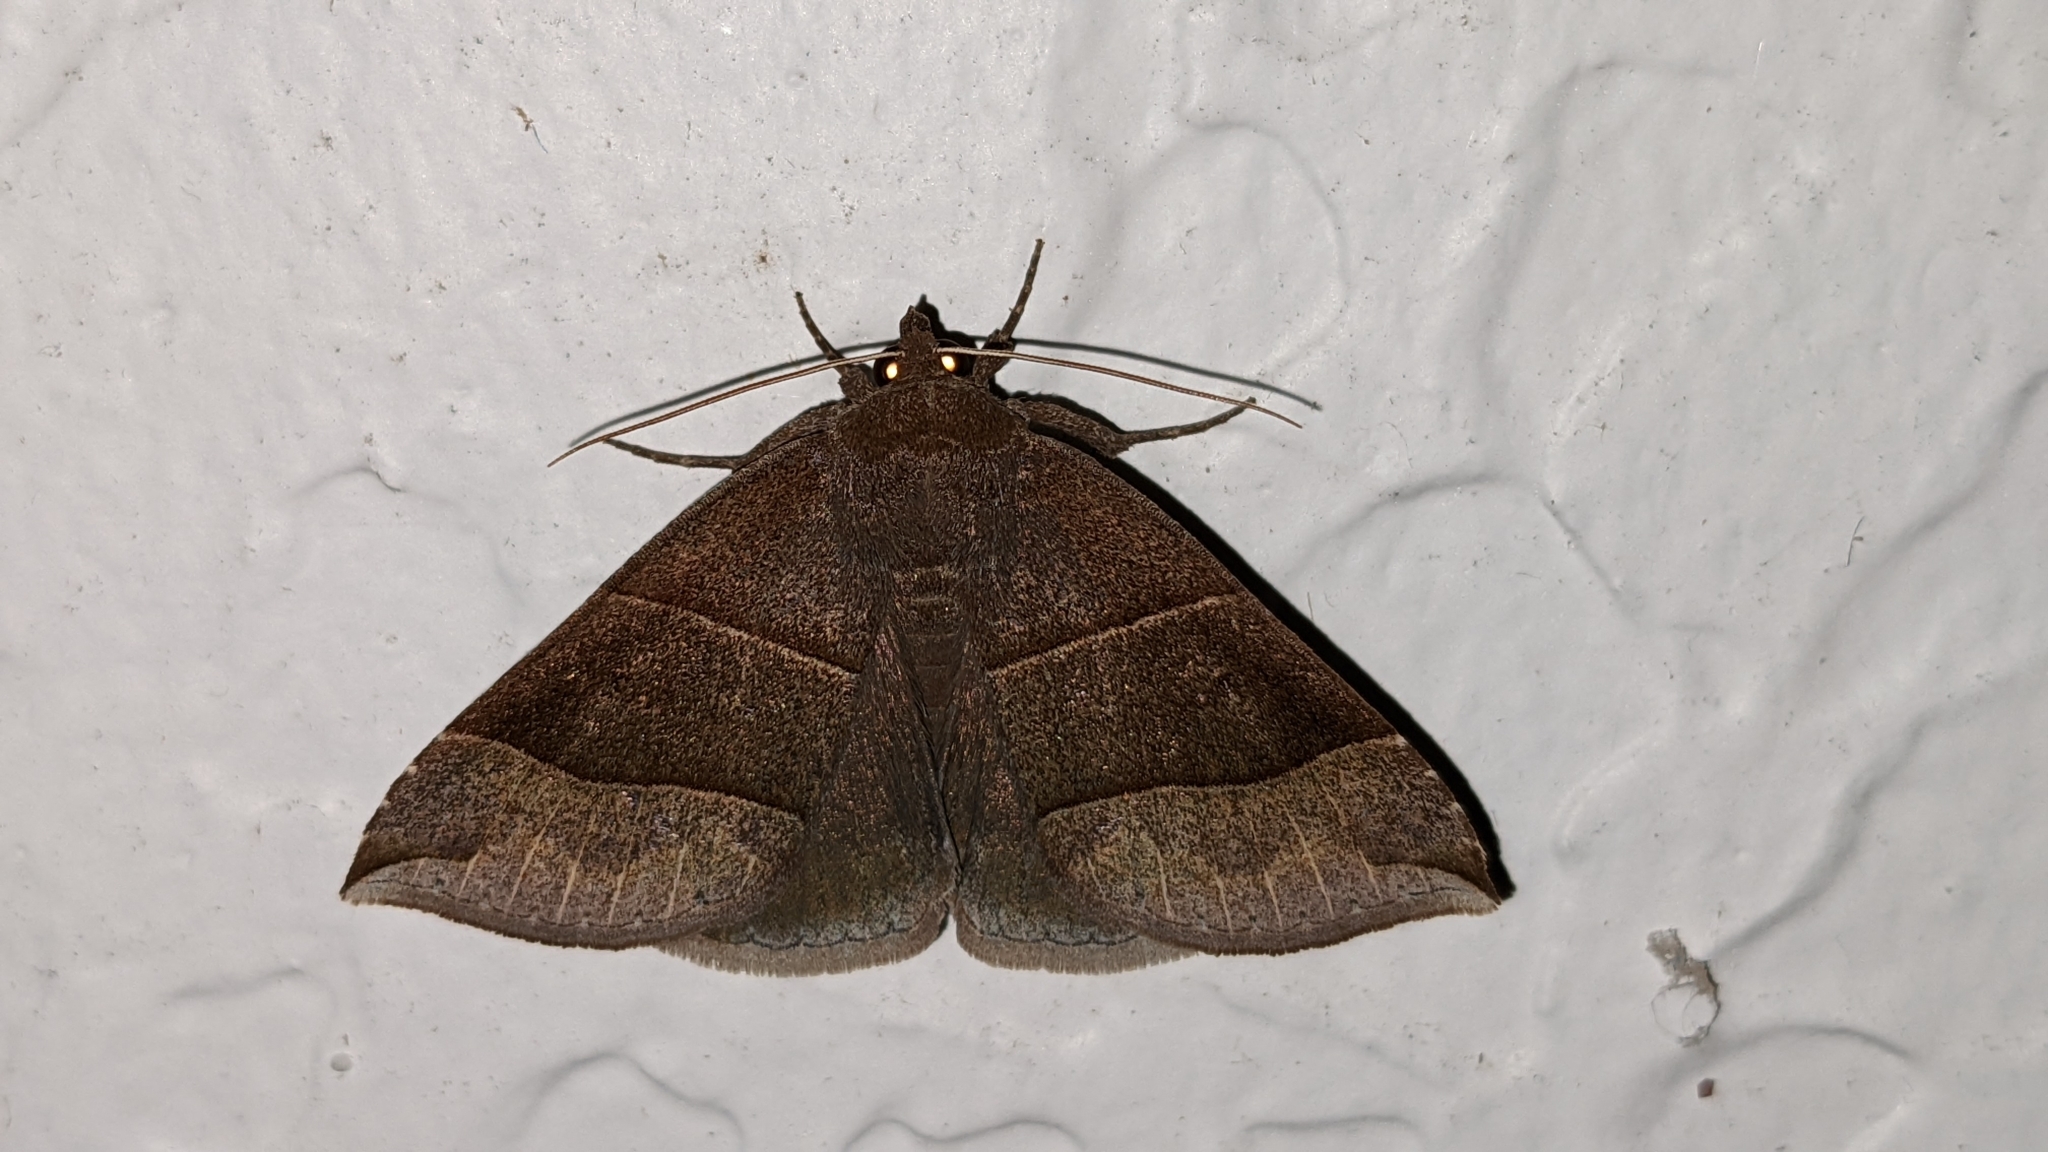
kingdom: Animalia
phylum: Arthropoda
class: Insecta
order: Lepidoptera
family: Erebidae
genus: Parallelia
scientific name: Parallelia bistriaris
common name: Maple looper moth
